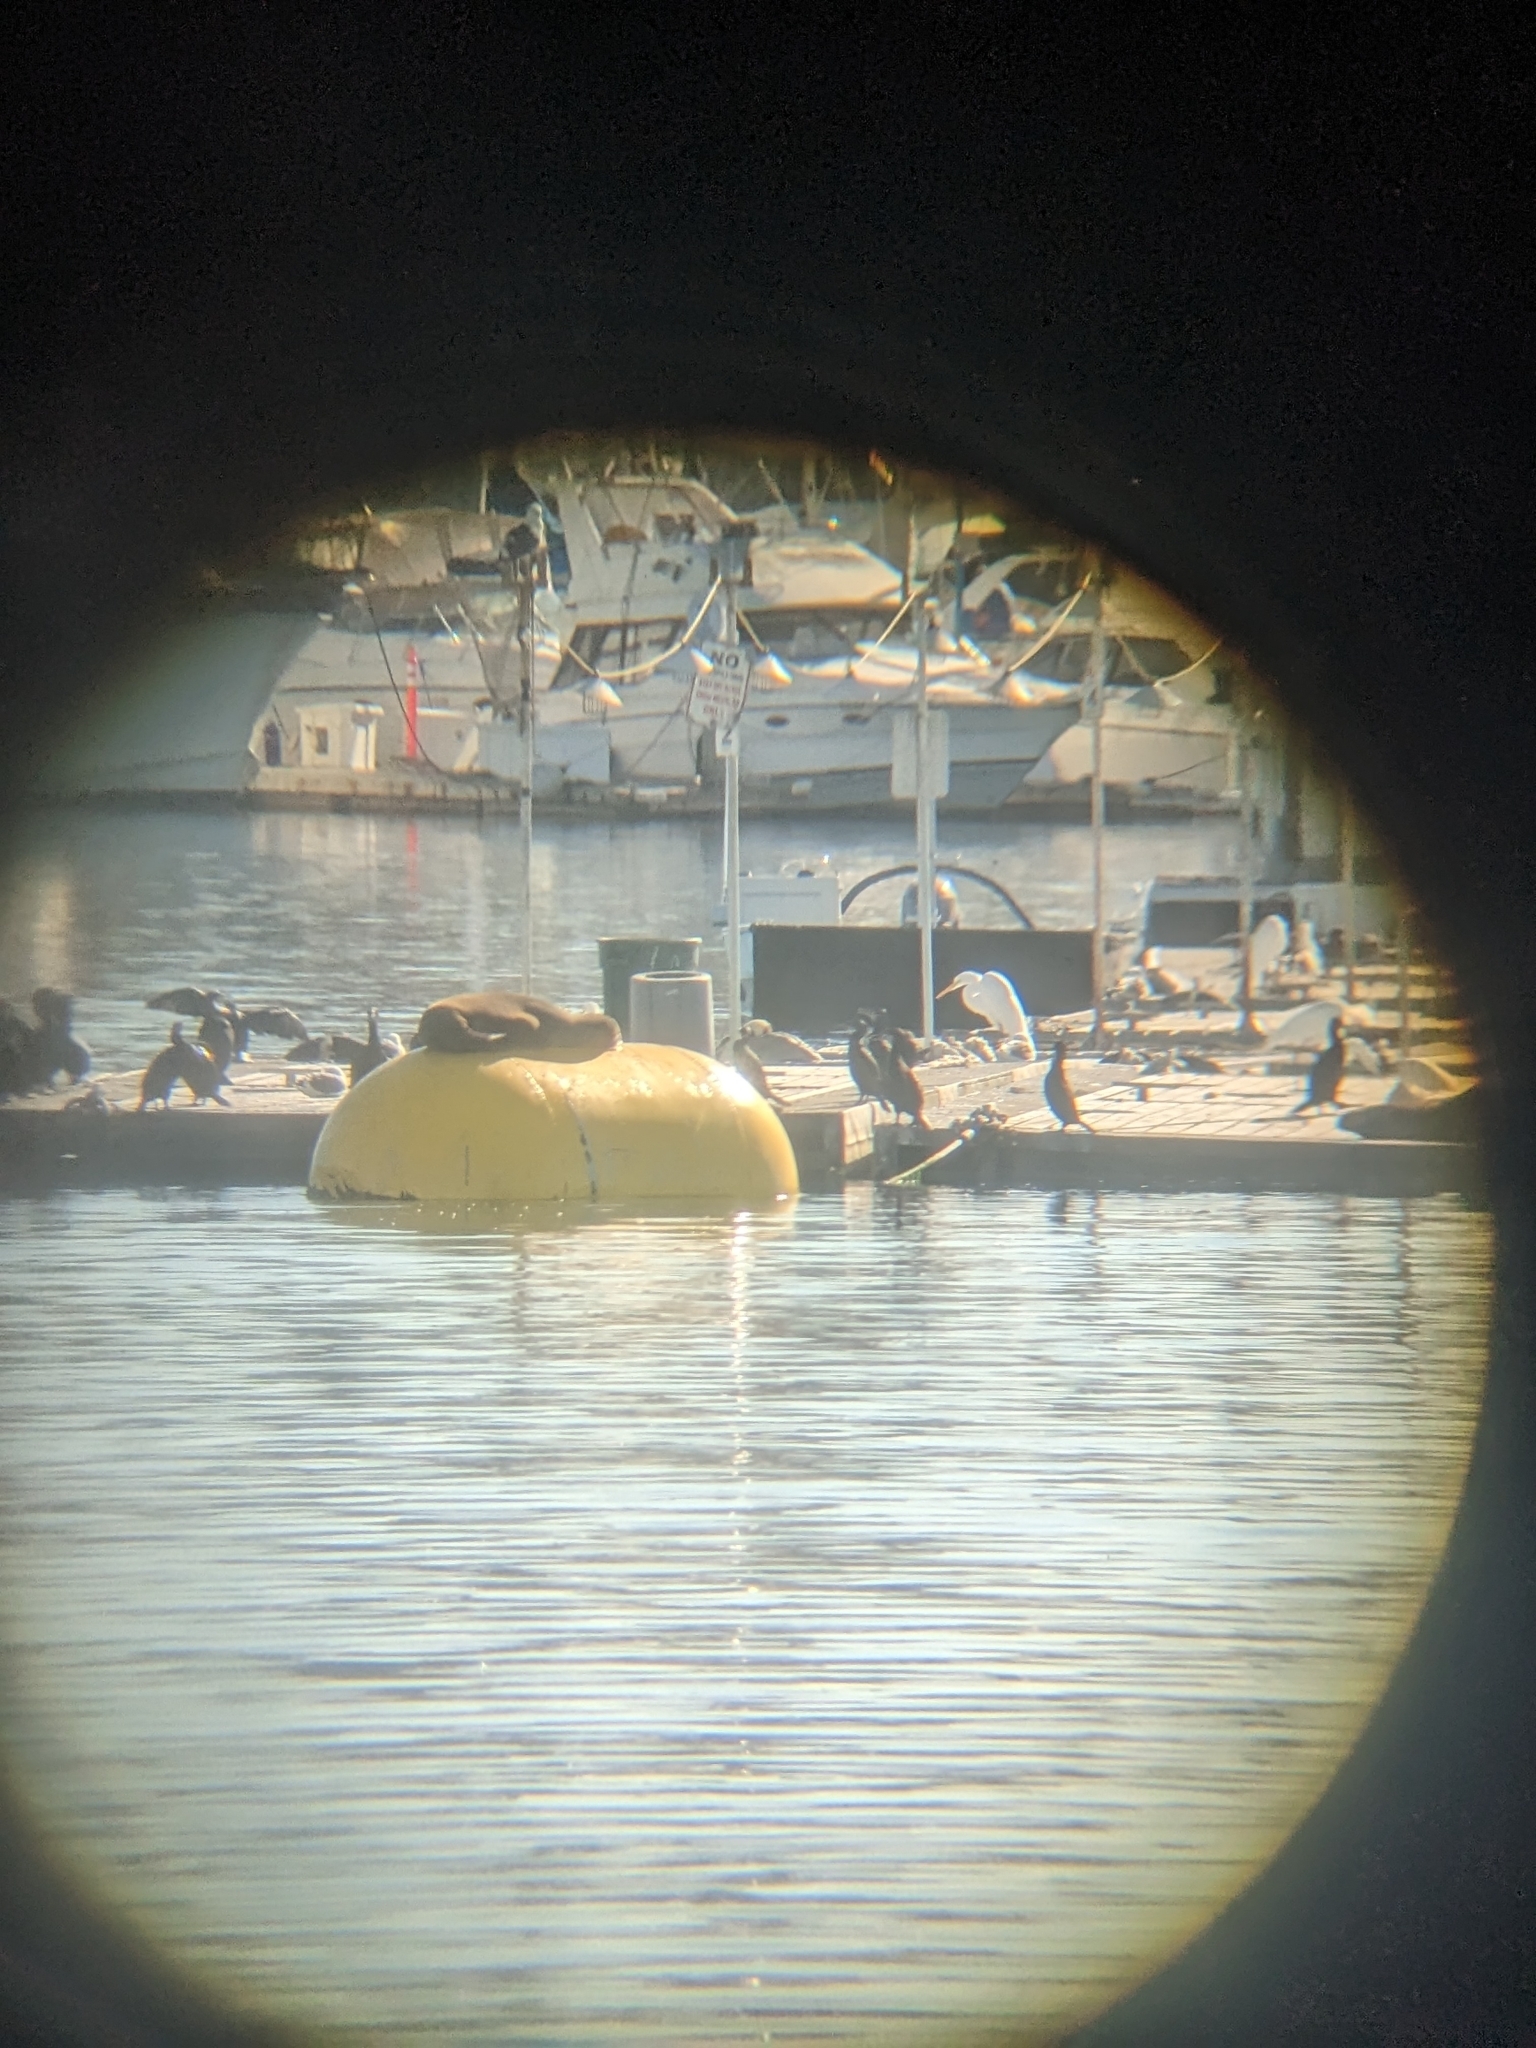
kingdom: Animalia
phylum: Chordata
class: Mammalia
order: Carnivora
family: Otariidae
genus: Zalophus
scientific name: Zalophus californianus
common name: California sea lion
